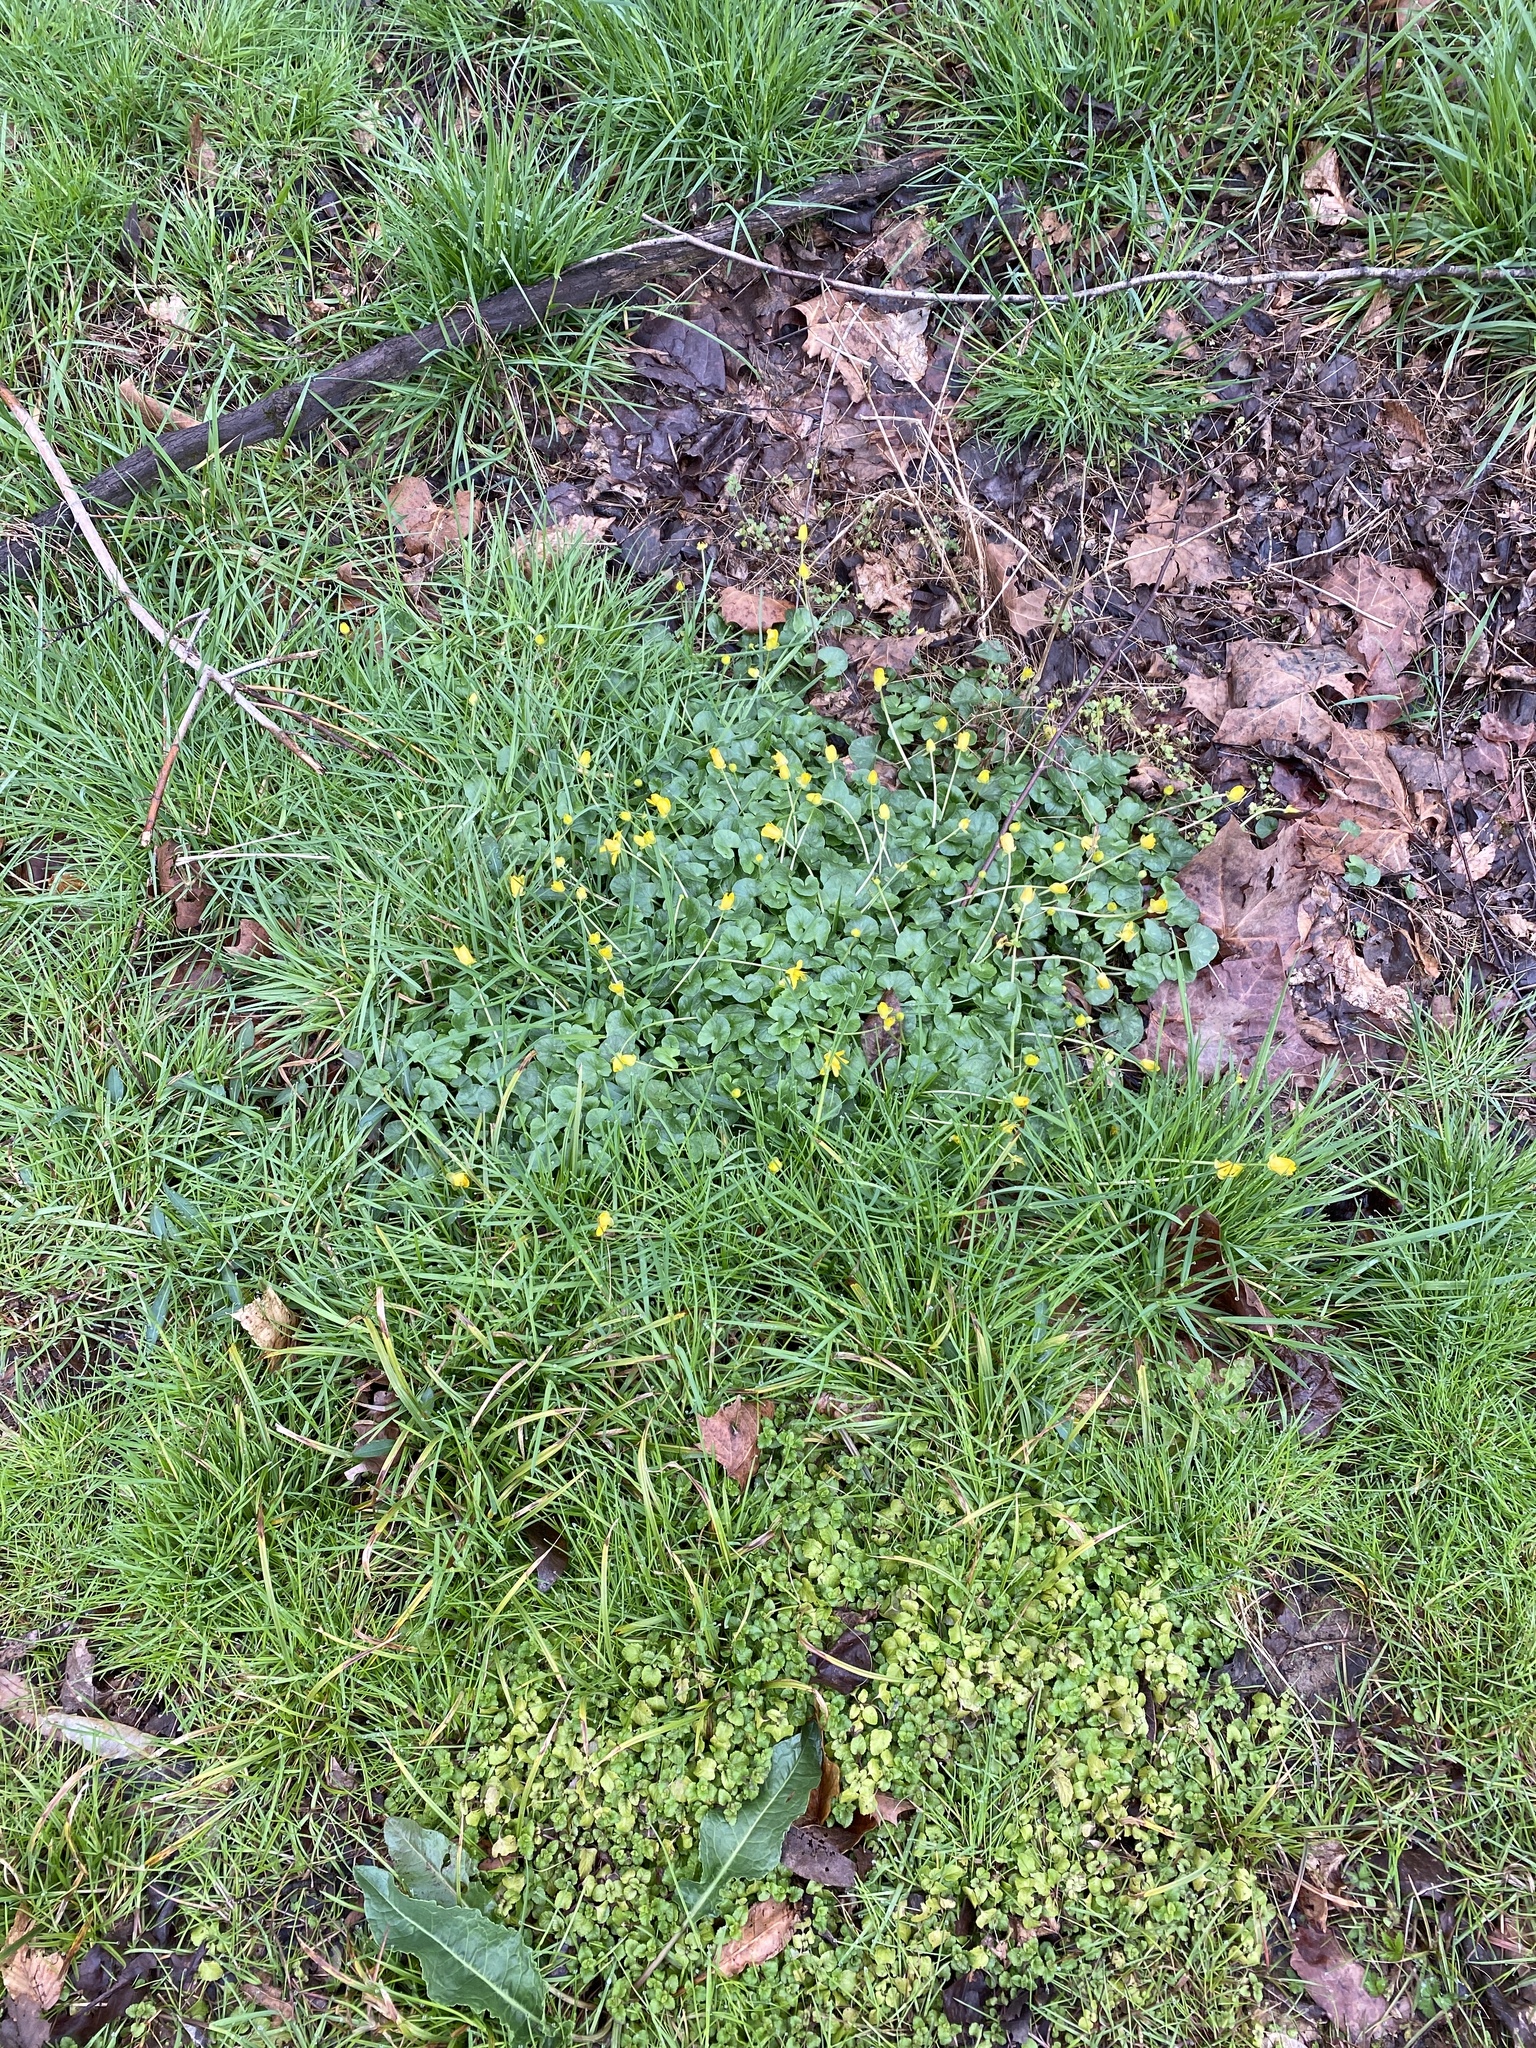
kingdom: Plantae
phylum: Tracheophyta
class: Magnoliopsida
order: Ranunculales
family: Ranunculaceae
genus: Ficaria
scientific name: Ficaria verna
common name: Lesser celandine
